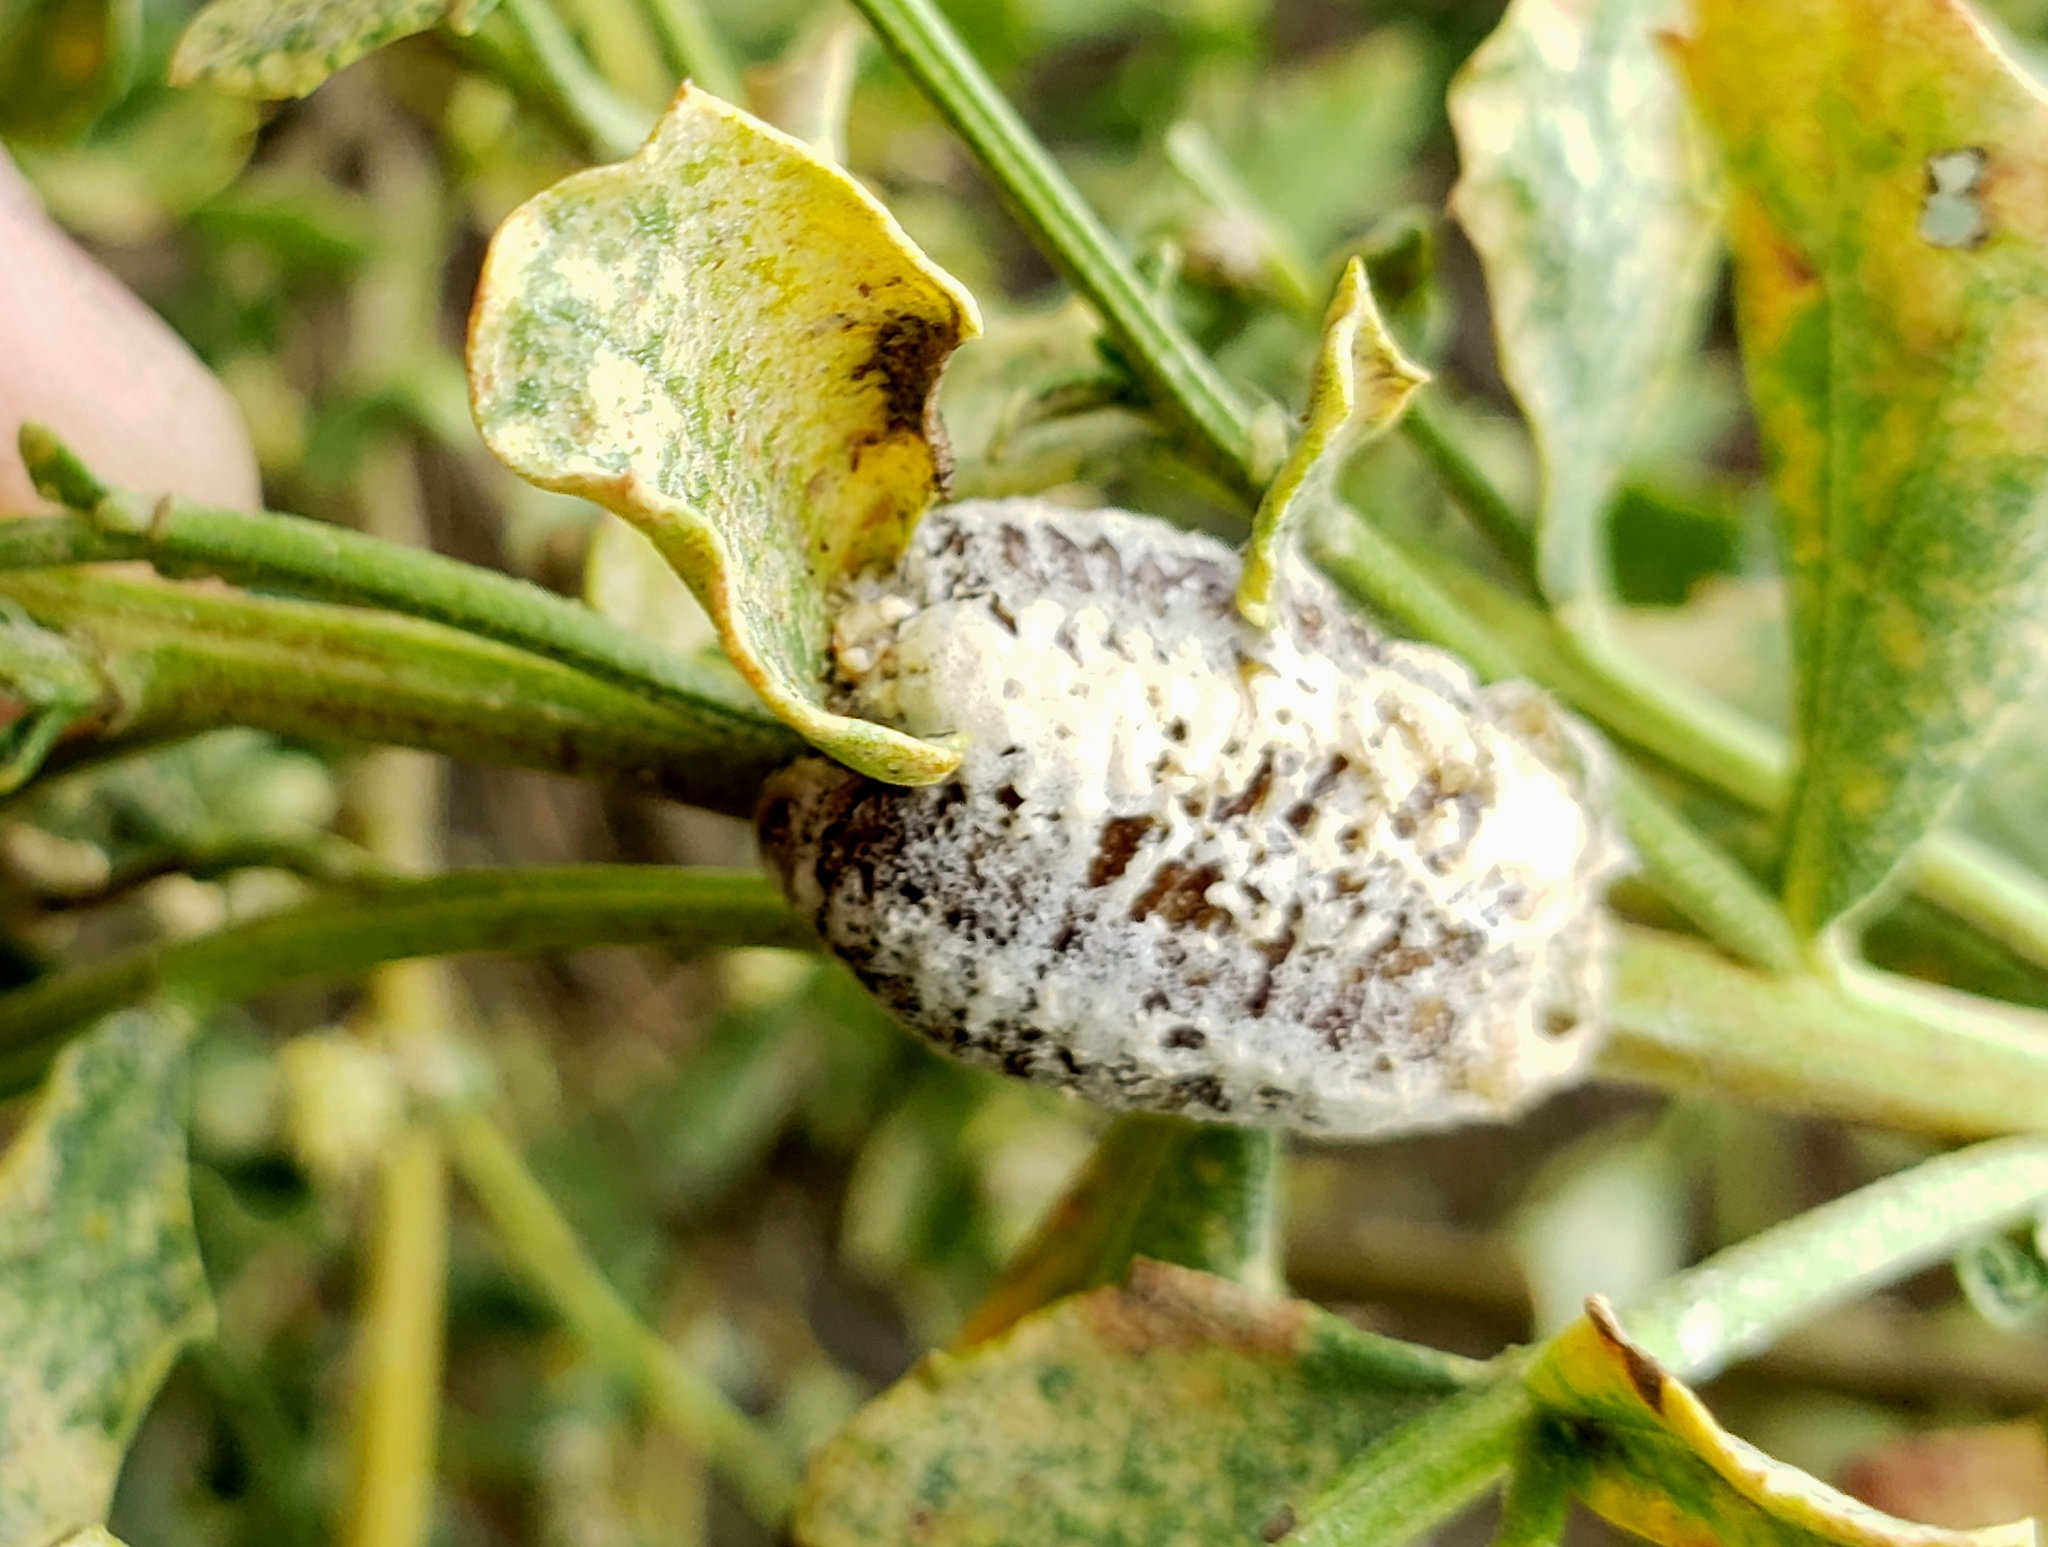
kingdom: Animalia
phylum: Arthropoda
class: Insecta
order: Mantodea
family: Mantidae
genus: Stagmomantis
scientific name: Stagmomantis limbata
